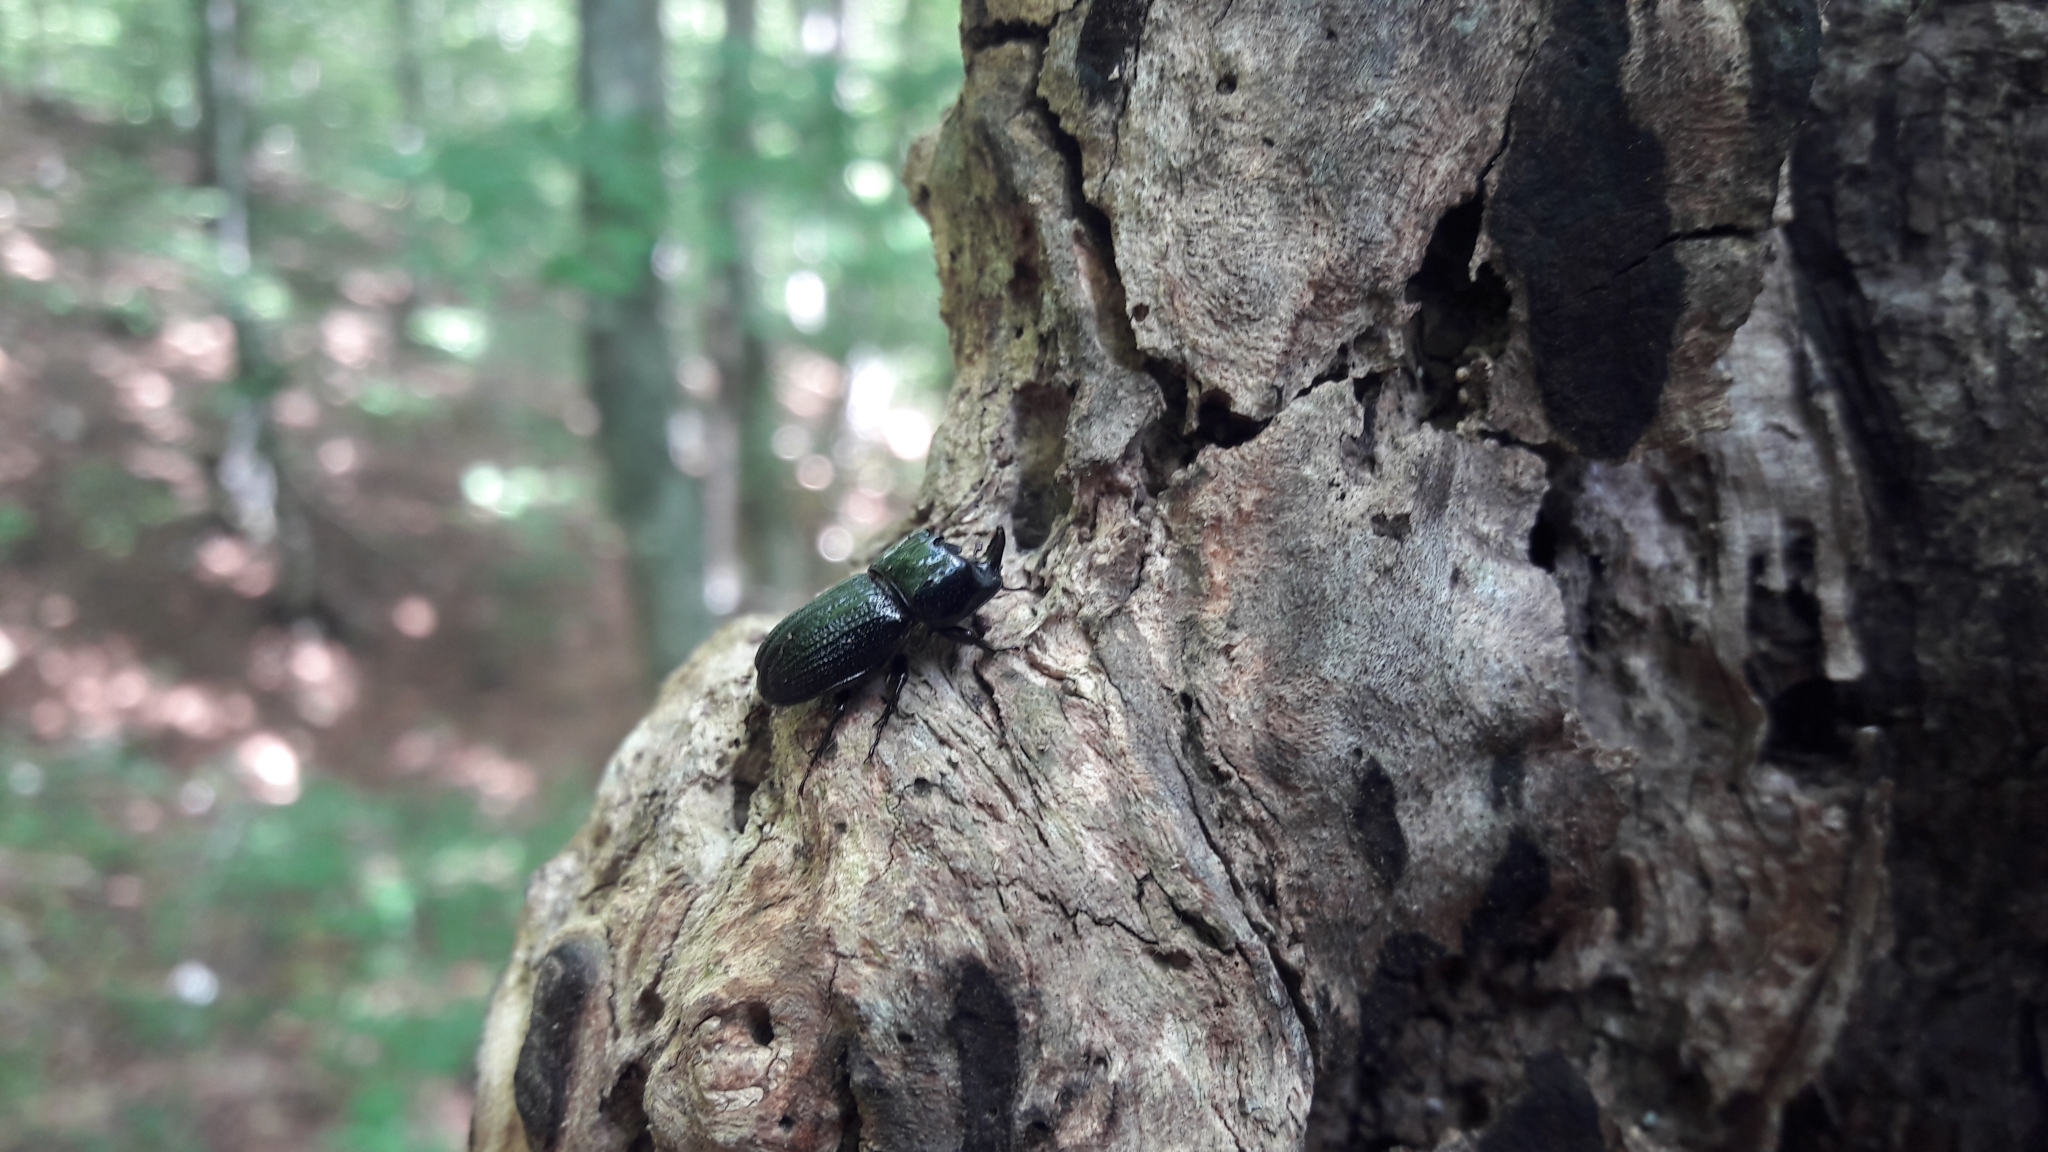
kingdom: Animalia
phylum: Arthropoda
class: Insecta
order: Coleoptera
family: Lucanidae
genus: Sinodendron
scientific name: Sinodendron cylindricum
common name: Rhinoceros beetle
